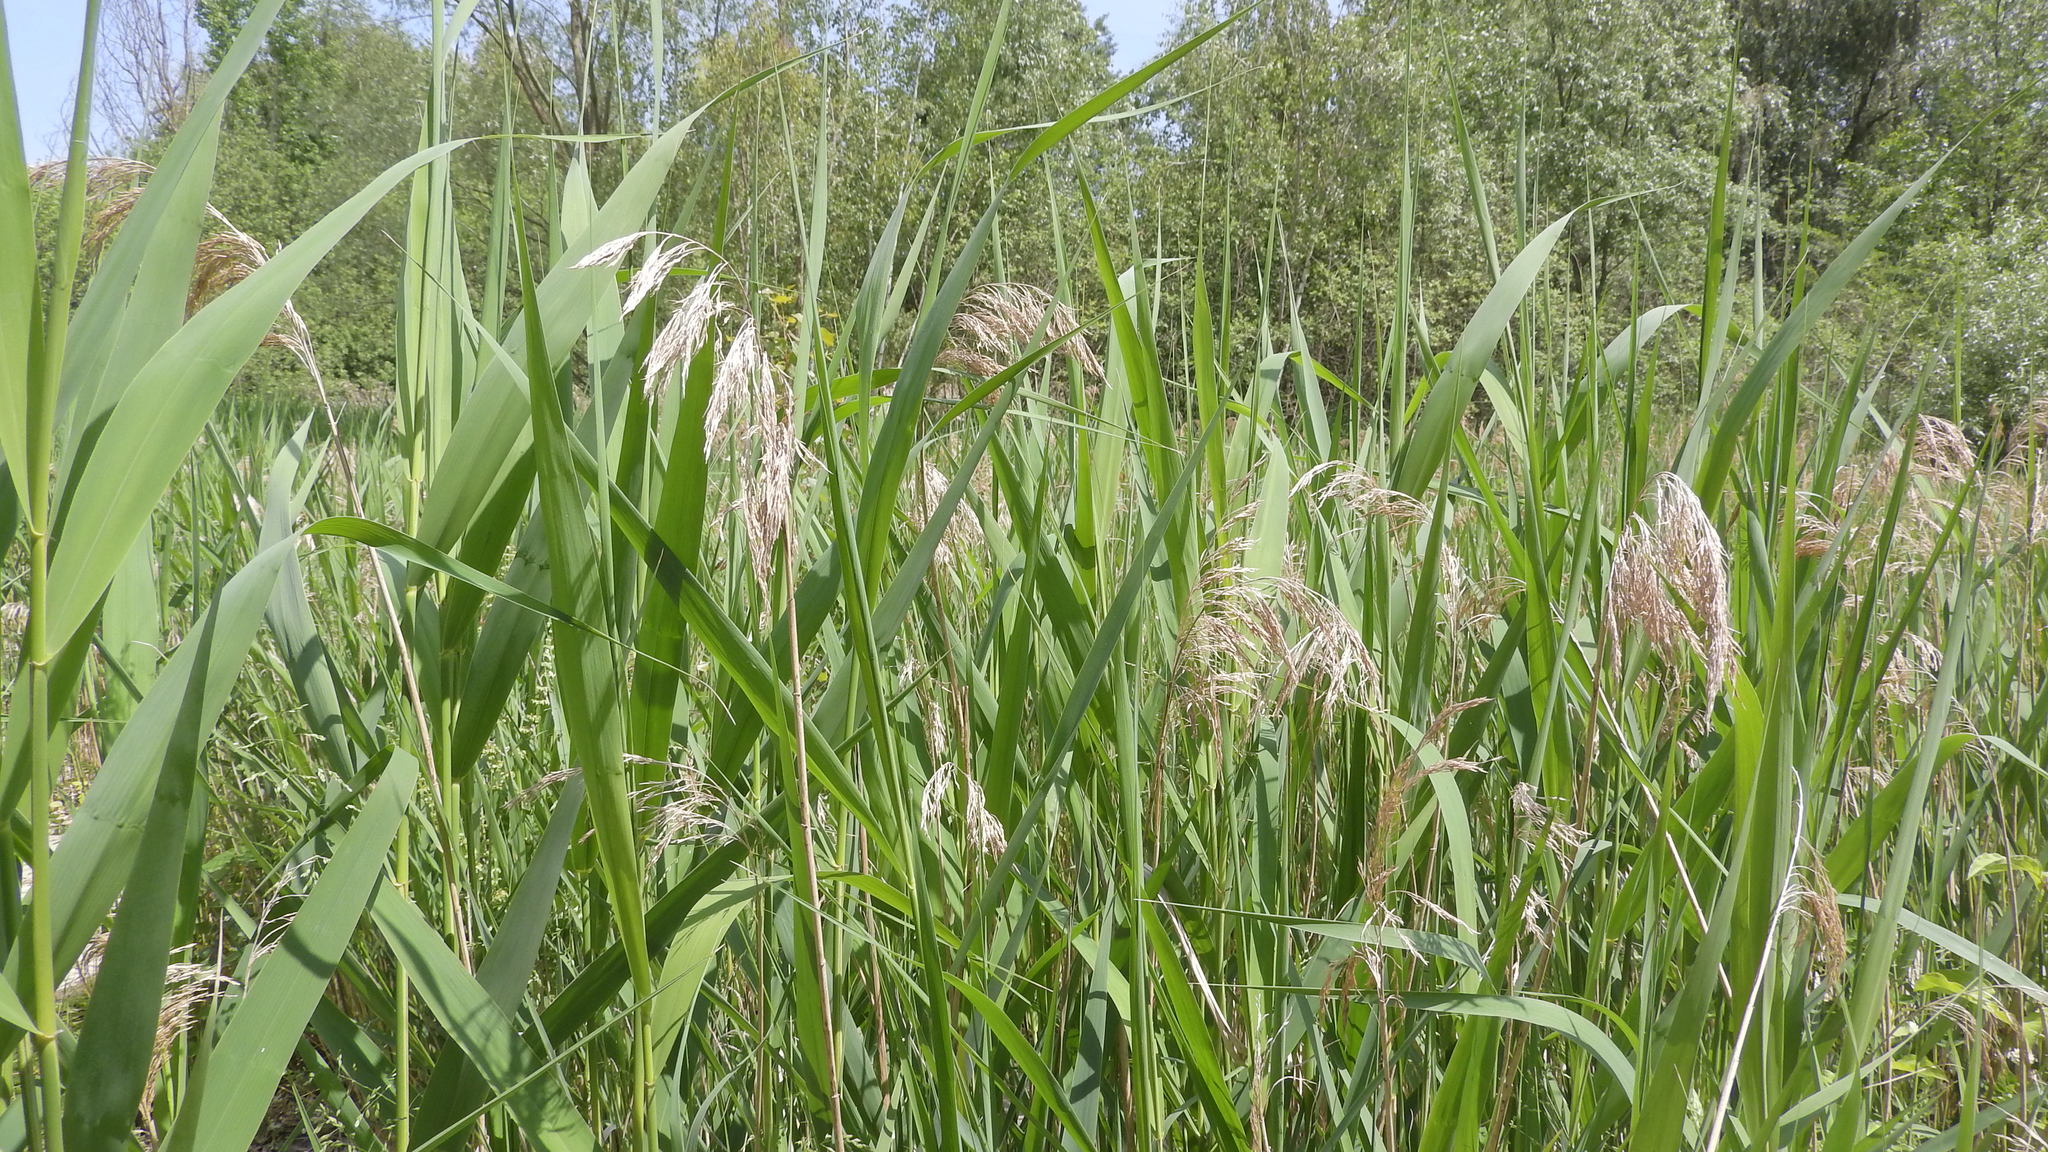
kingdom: Plantae
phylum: Tracheophyta
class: Liliopsida
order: Poales
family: Poaceae
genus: Phragmites
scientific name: Phragmites australis
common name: Common reed
